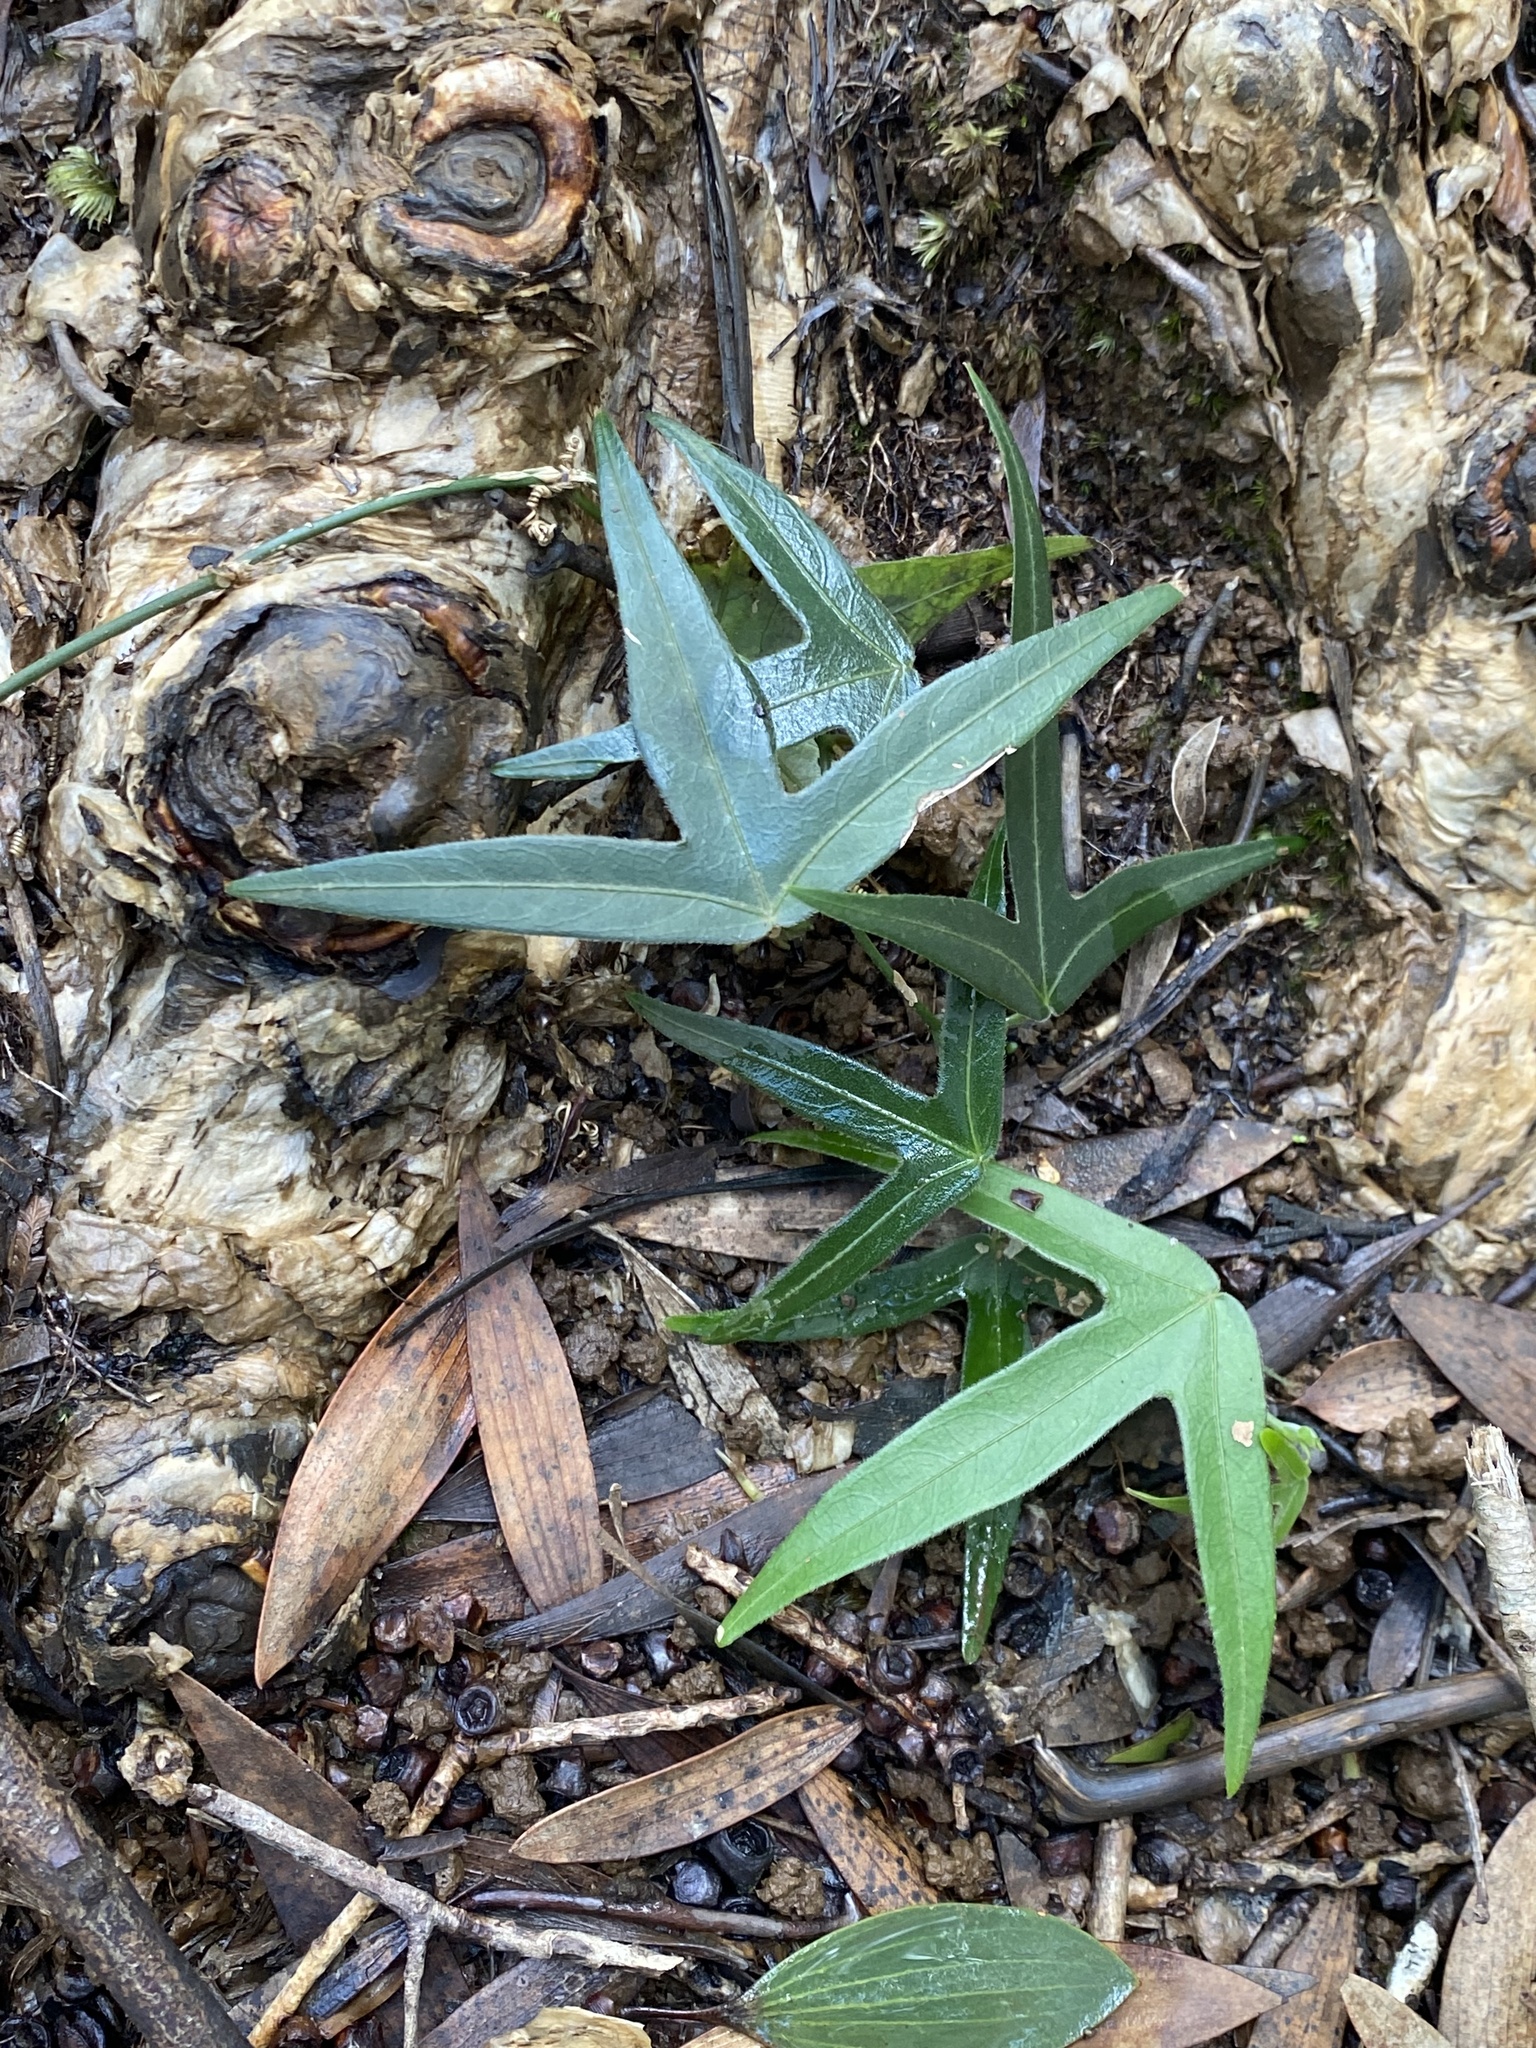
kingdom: Plantae
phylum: Tracheophyta
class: Magnoliopsida
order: Malpighiales
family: Passifloraceae
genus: Passiflora
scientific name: Passiflora suberosa
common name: Wild passionfruit
